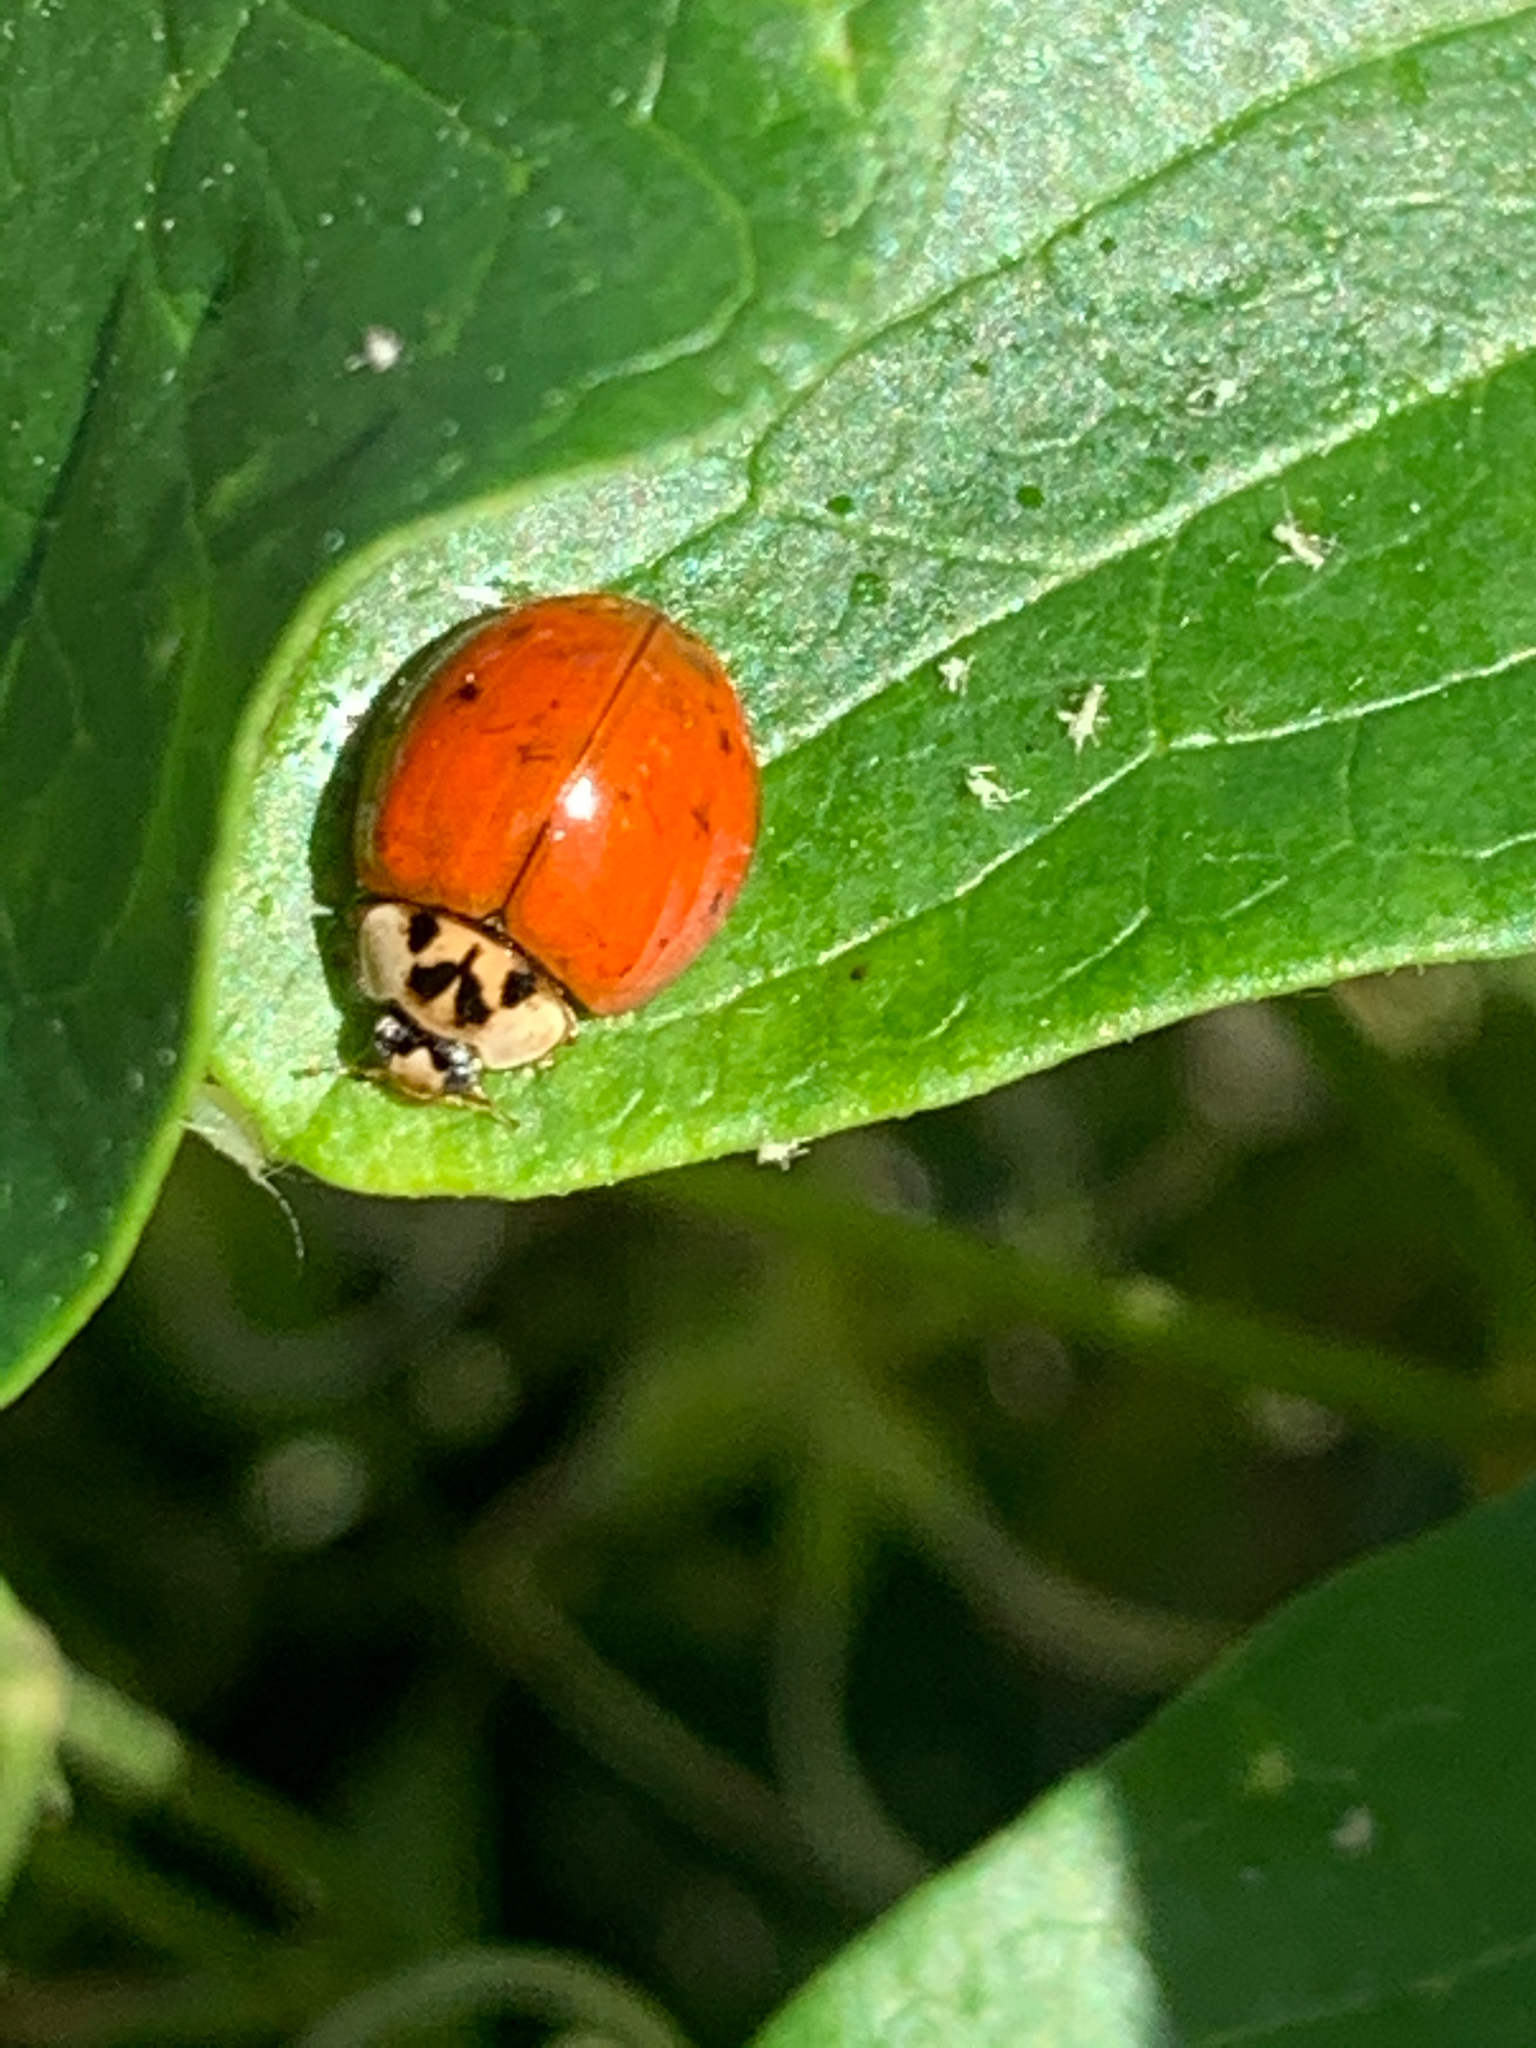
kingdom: Animalia
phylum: Arthropoda
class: Insecta
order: Coleoptera
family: Coccinellidae
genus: Harmonia
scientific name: Harmonia axyridis
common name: Harlequin ladybird
